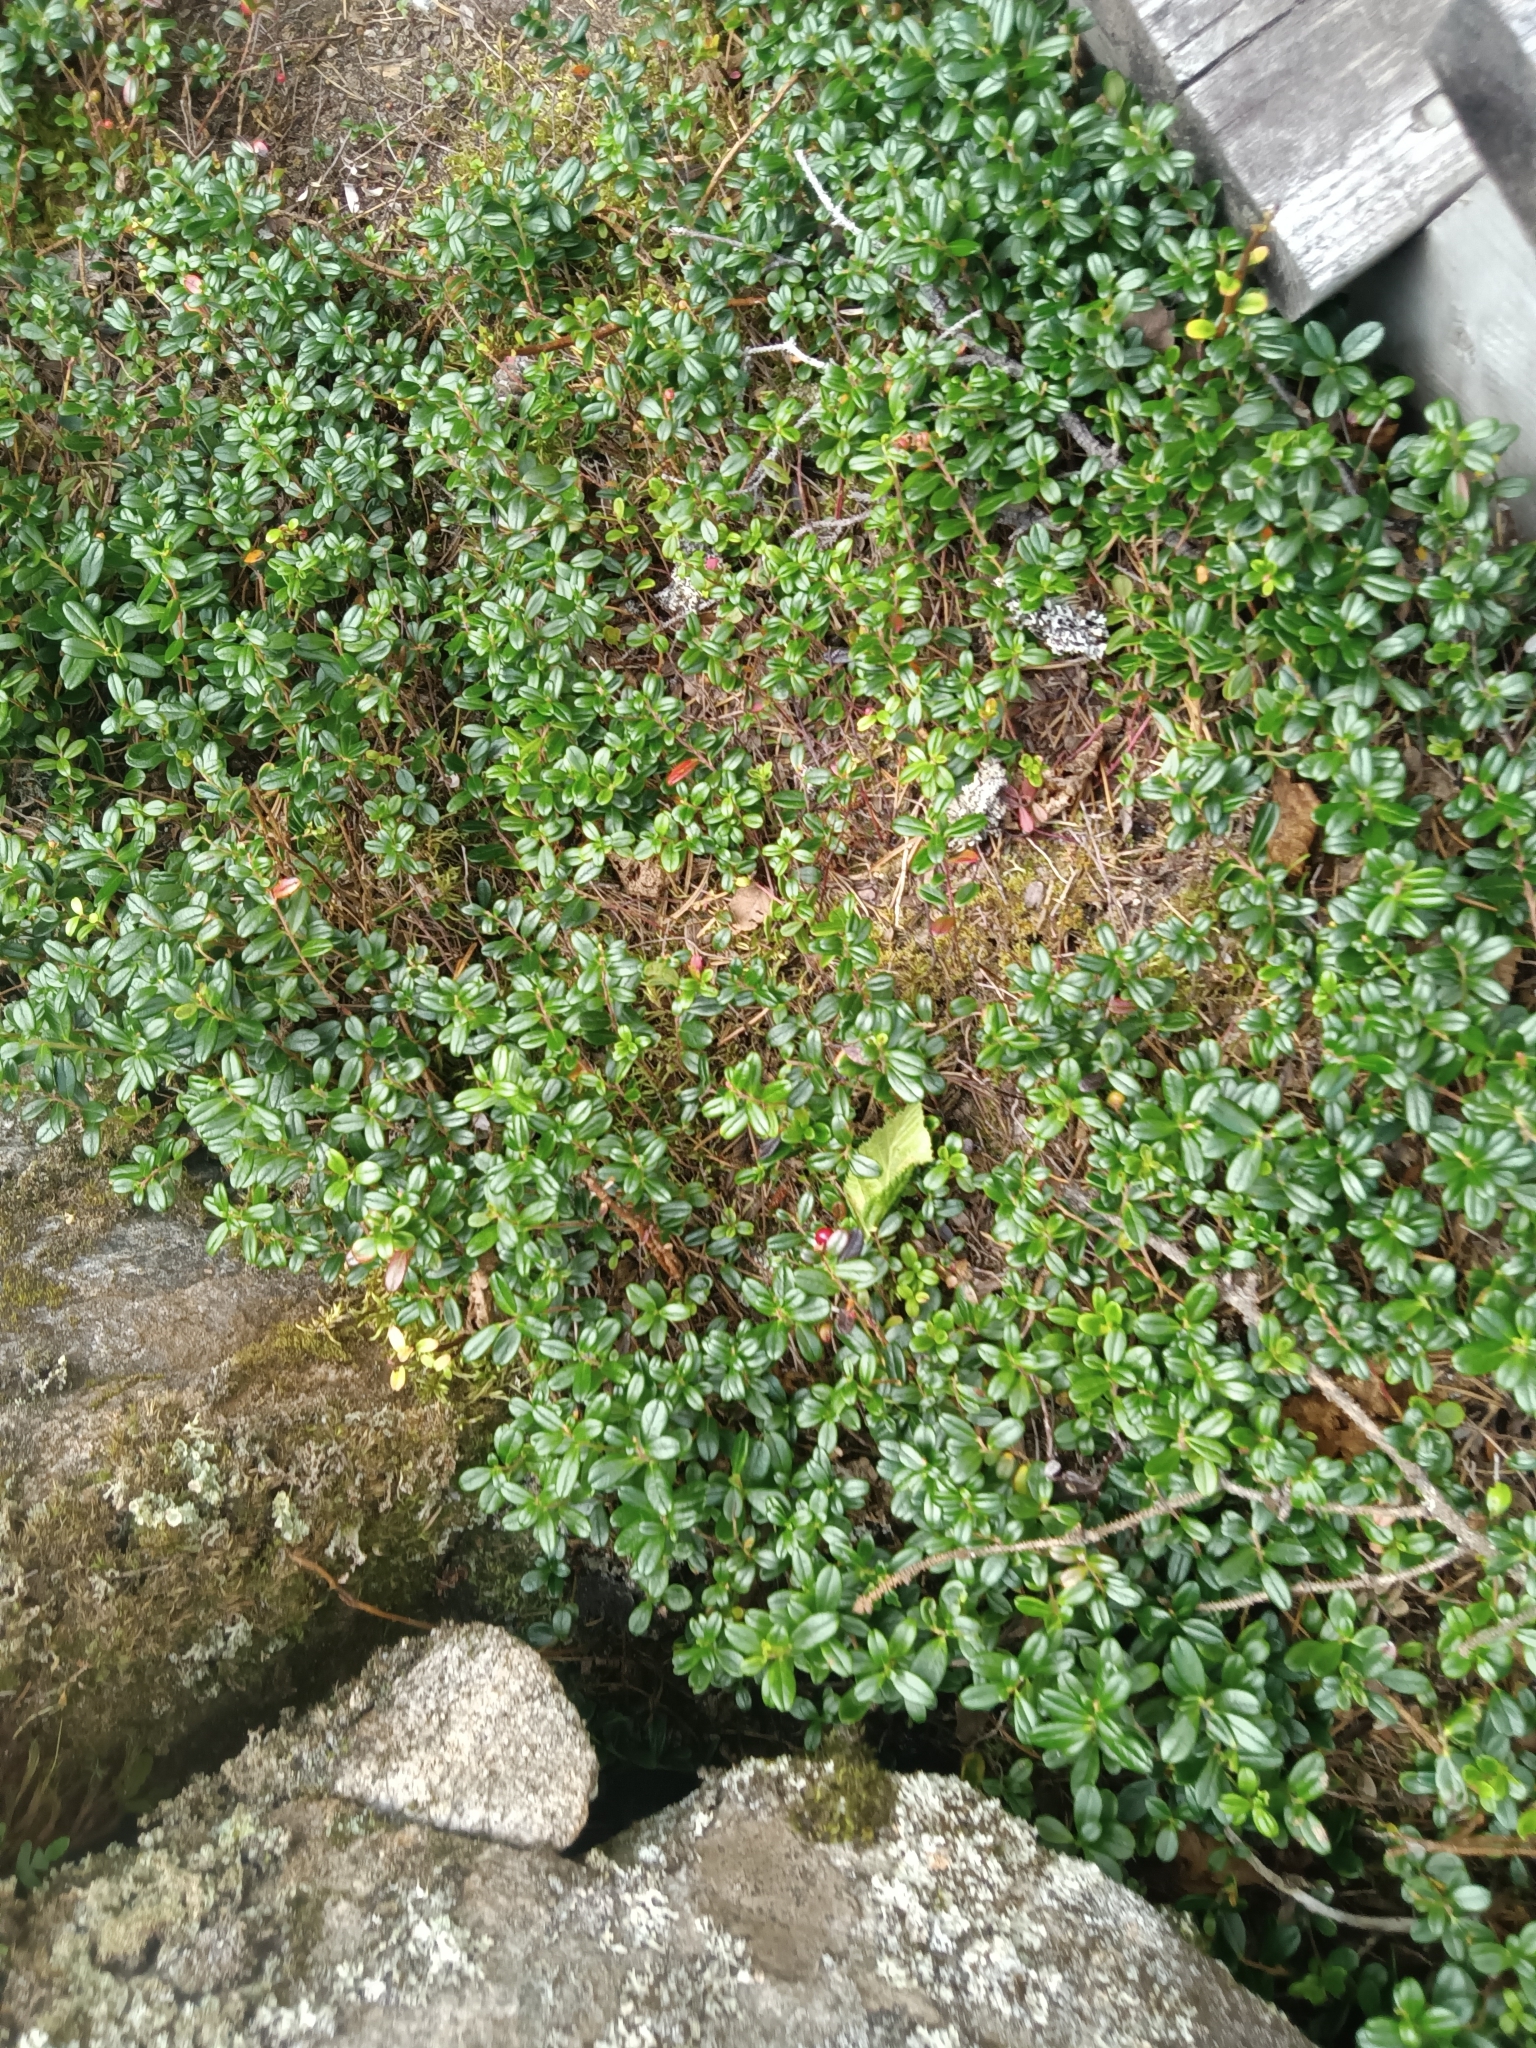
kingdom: Plantae
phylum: Tracheophyta
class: Magnoliopsida
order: Ericales
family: Ericaceae
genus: Vaccinium
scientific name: Vaccinium vitis-idaea
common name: Cowberry
